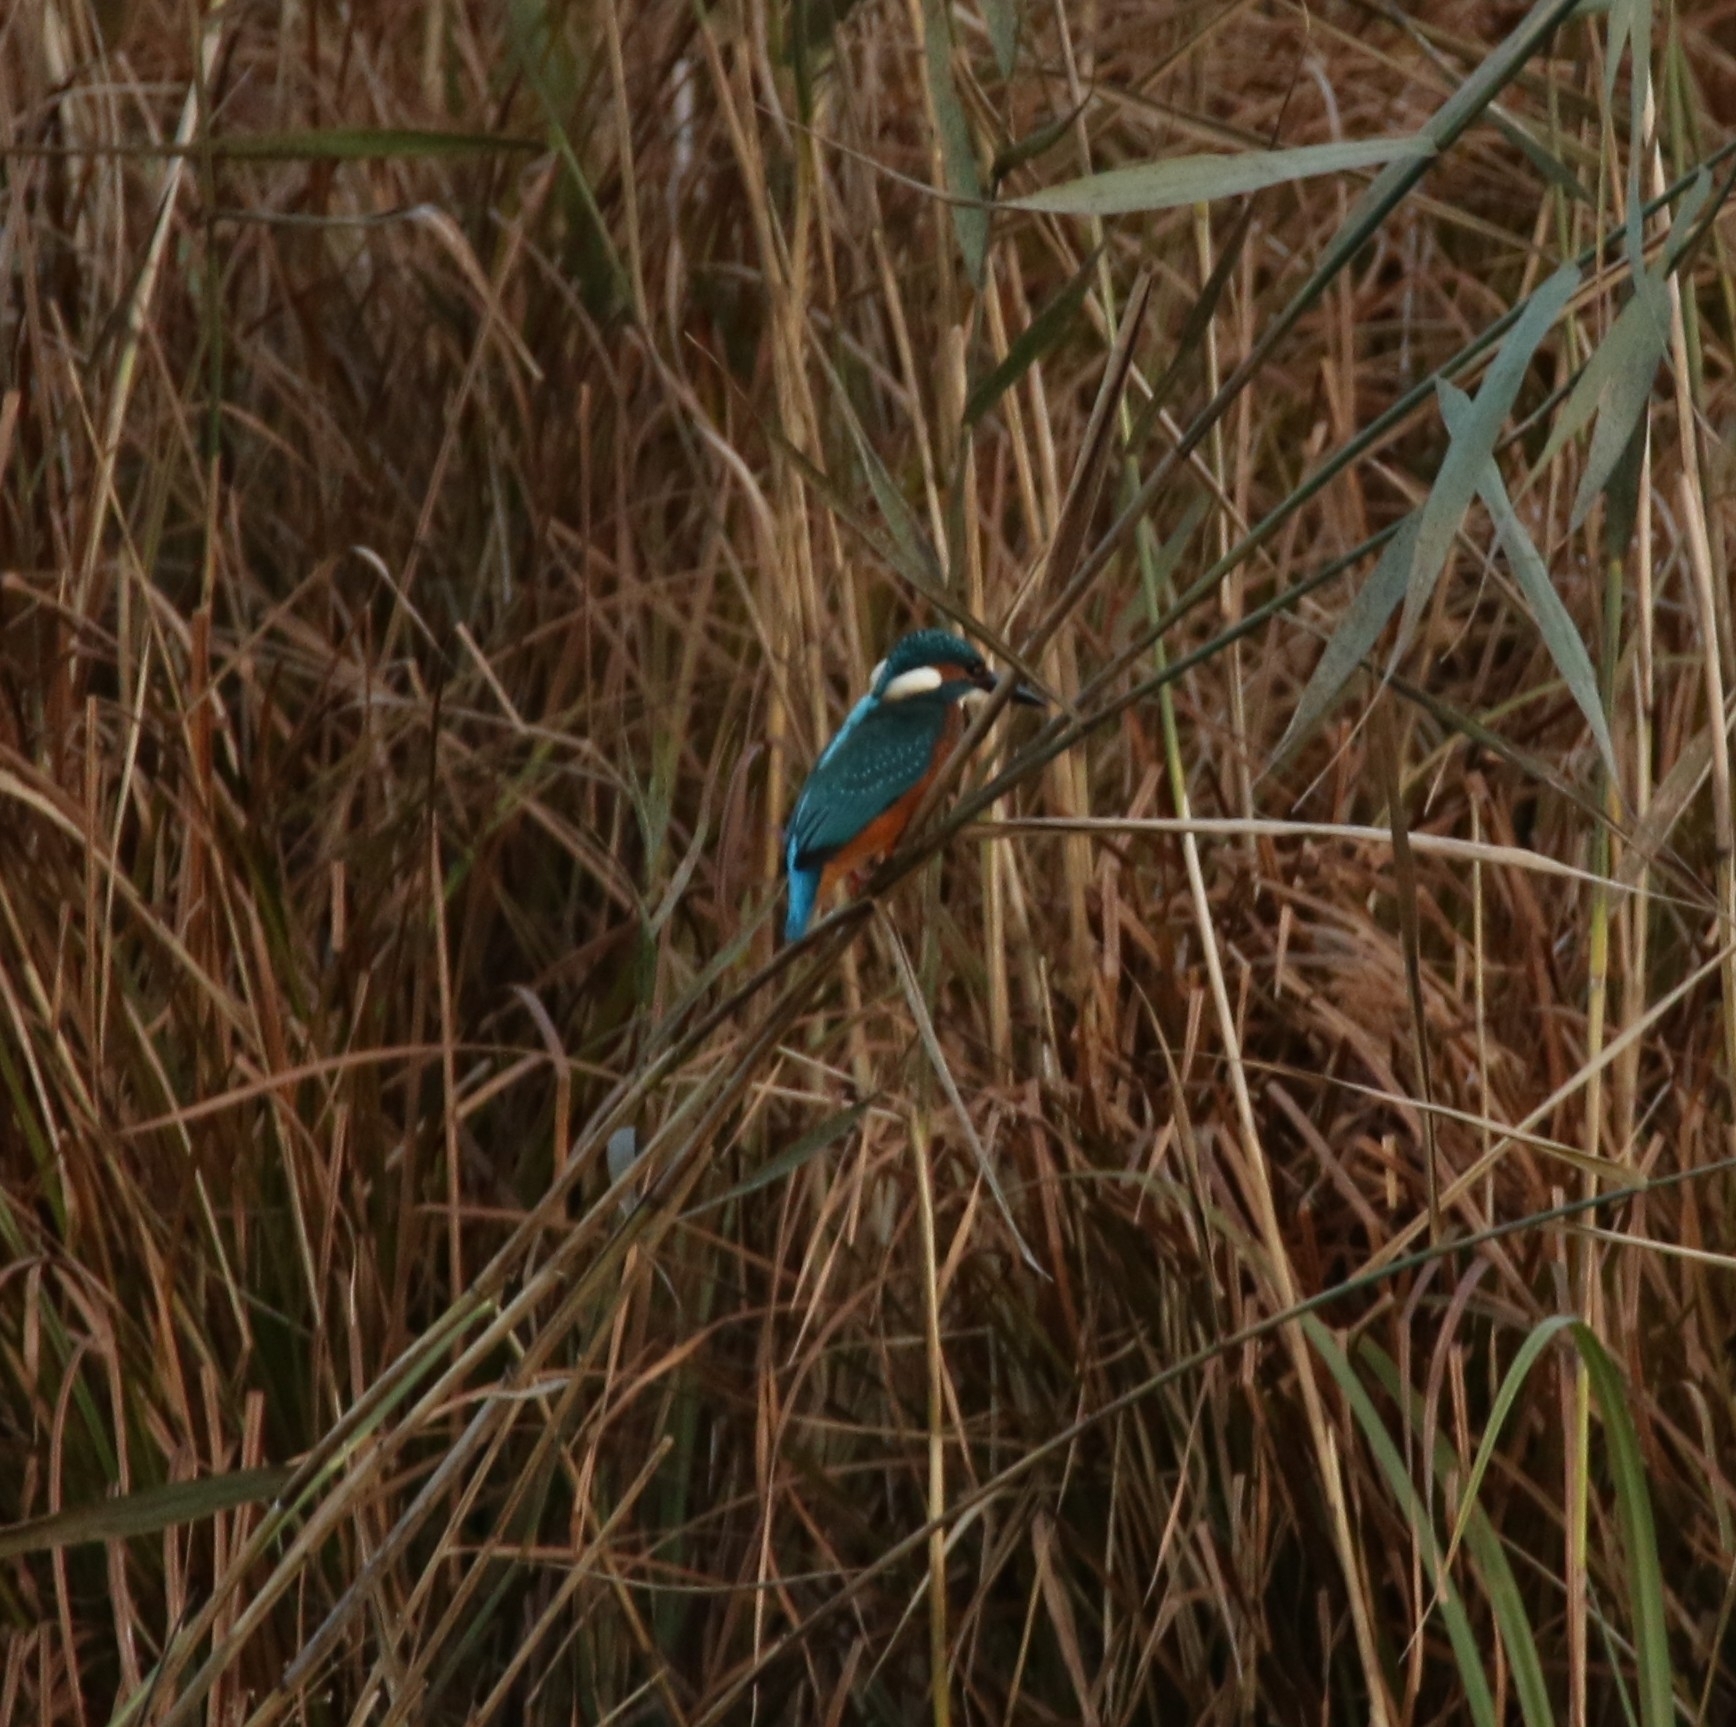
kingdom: Animalia
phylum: Chordata
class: Aves
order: Coraciiformes
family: Alcedinidae
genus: Alcedo
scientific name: Alcedo atthis
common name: Common kingfisher
